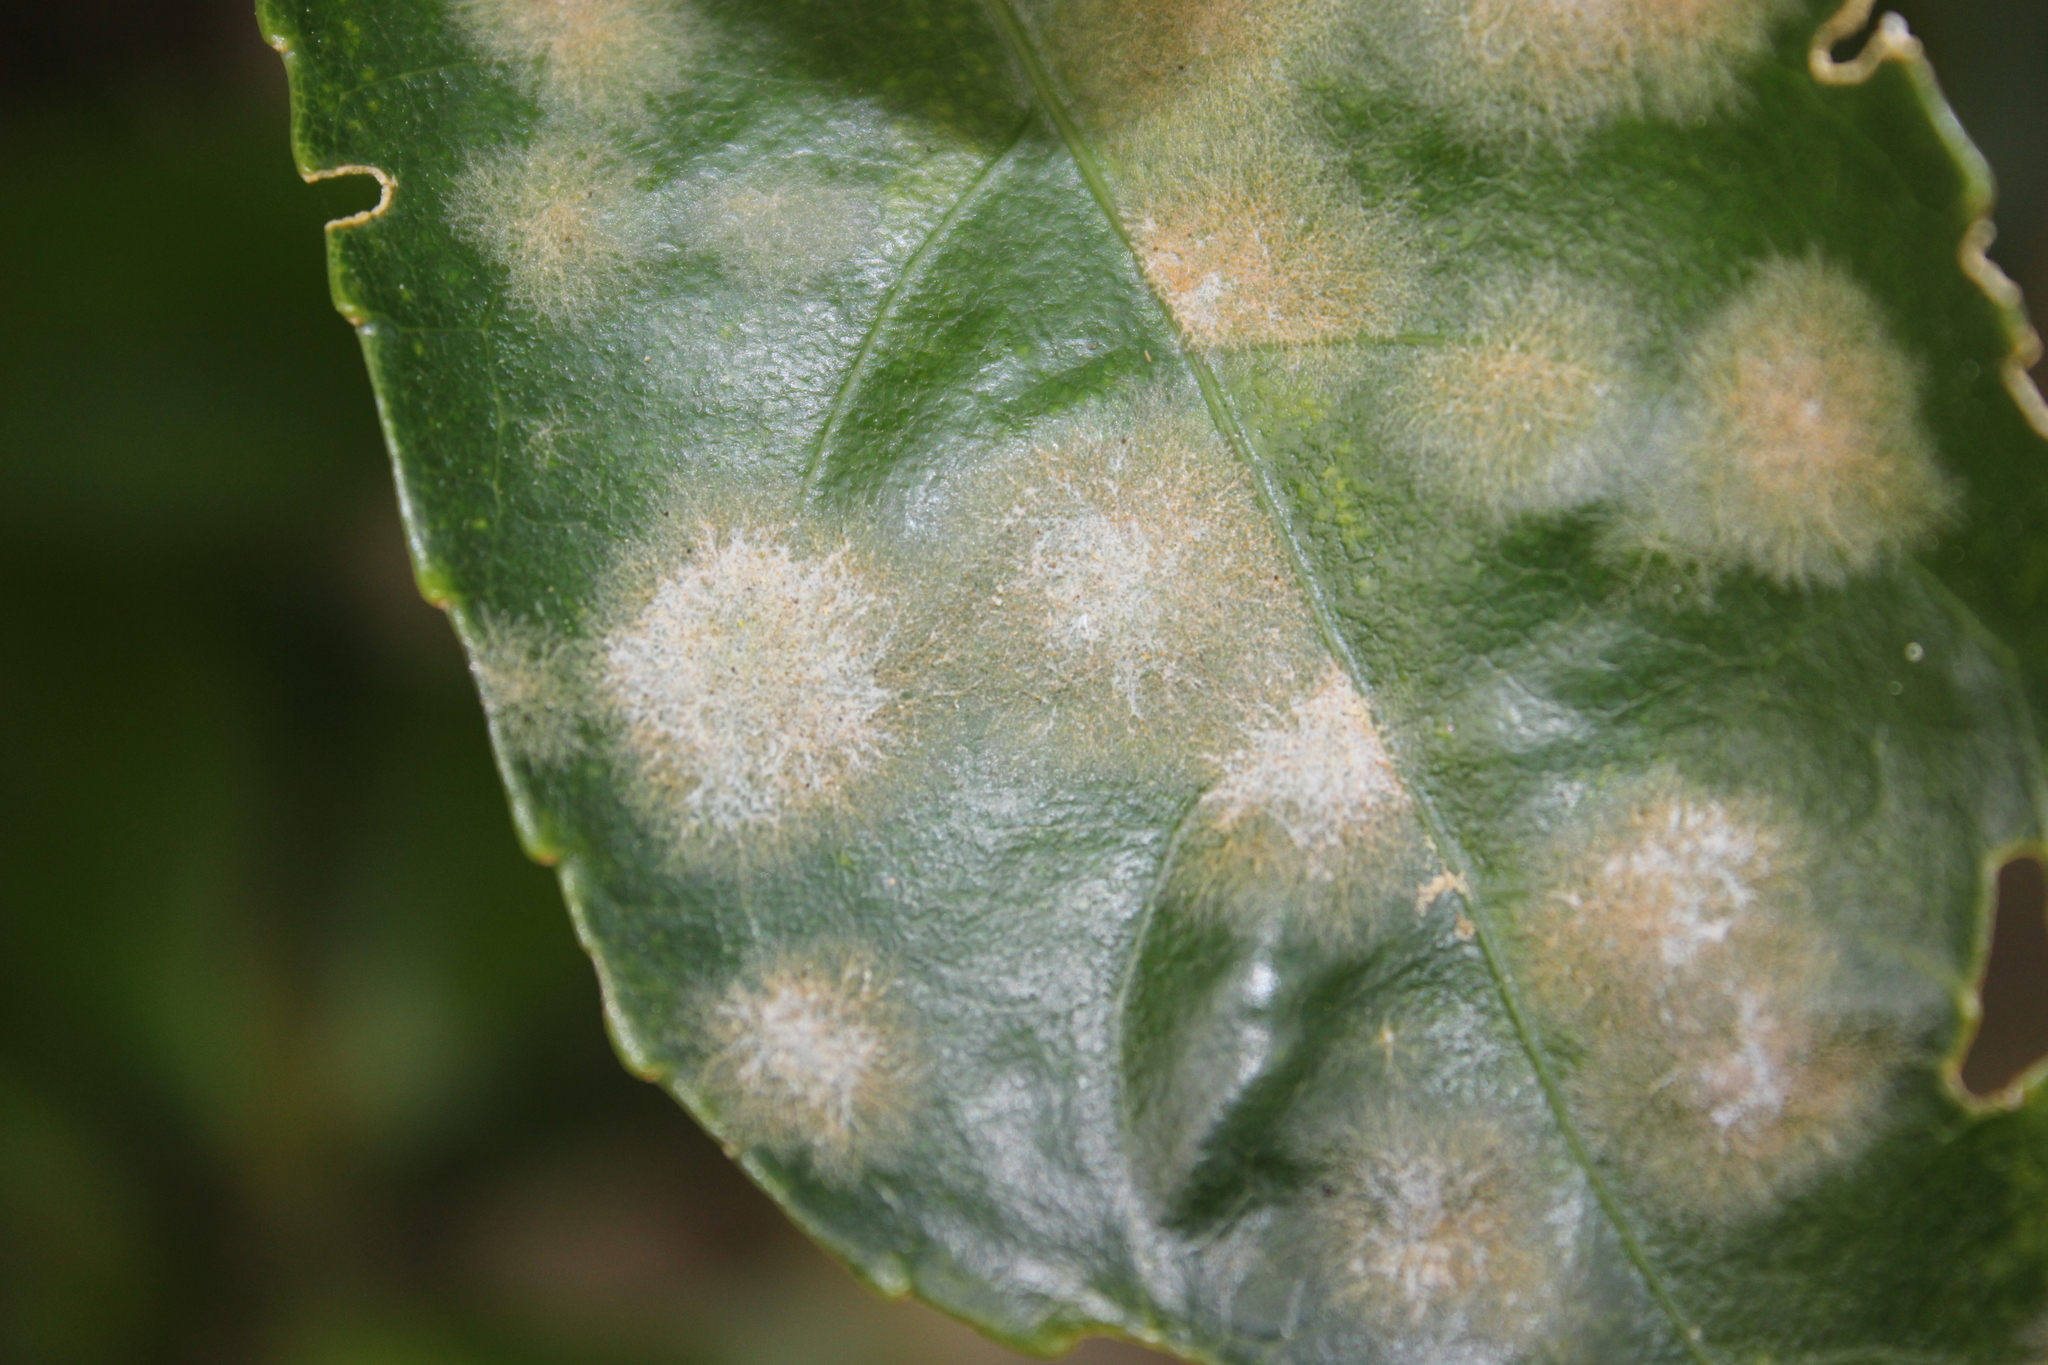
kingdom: Plantae
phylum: Chlorophyta
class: Ulvophyceae
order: Trentepohliales
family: Trentepohliaceae
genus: Cephaleuros
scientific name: Cephaleuros
